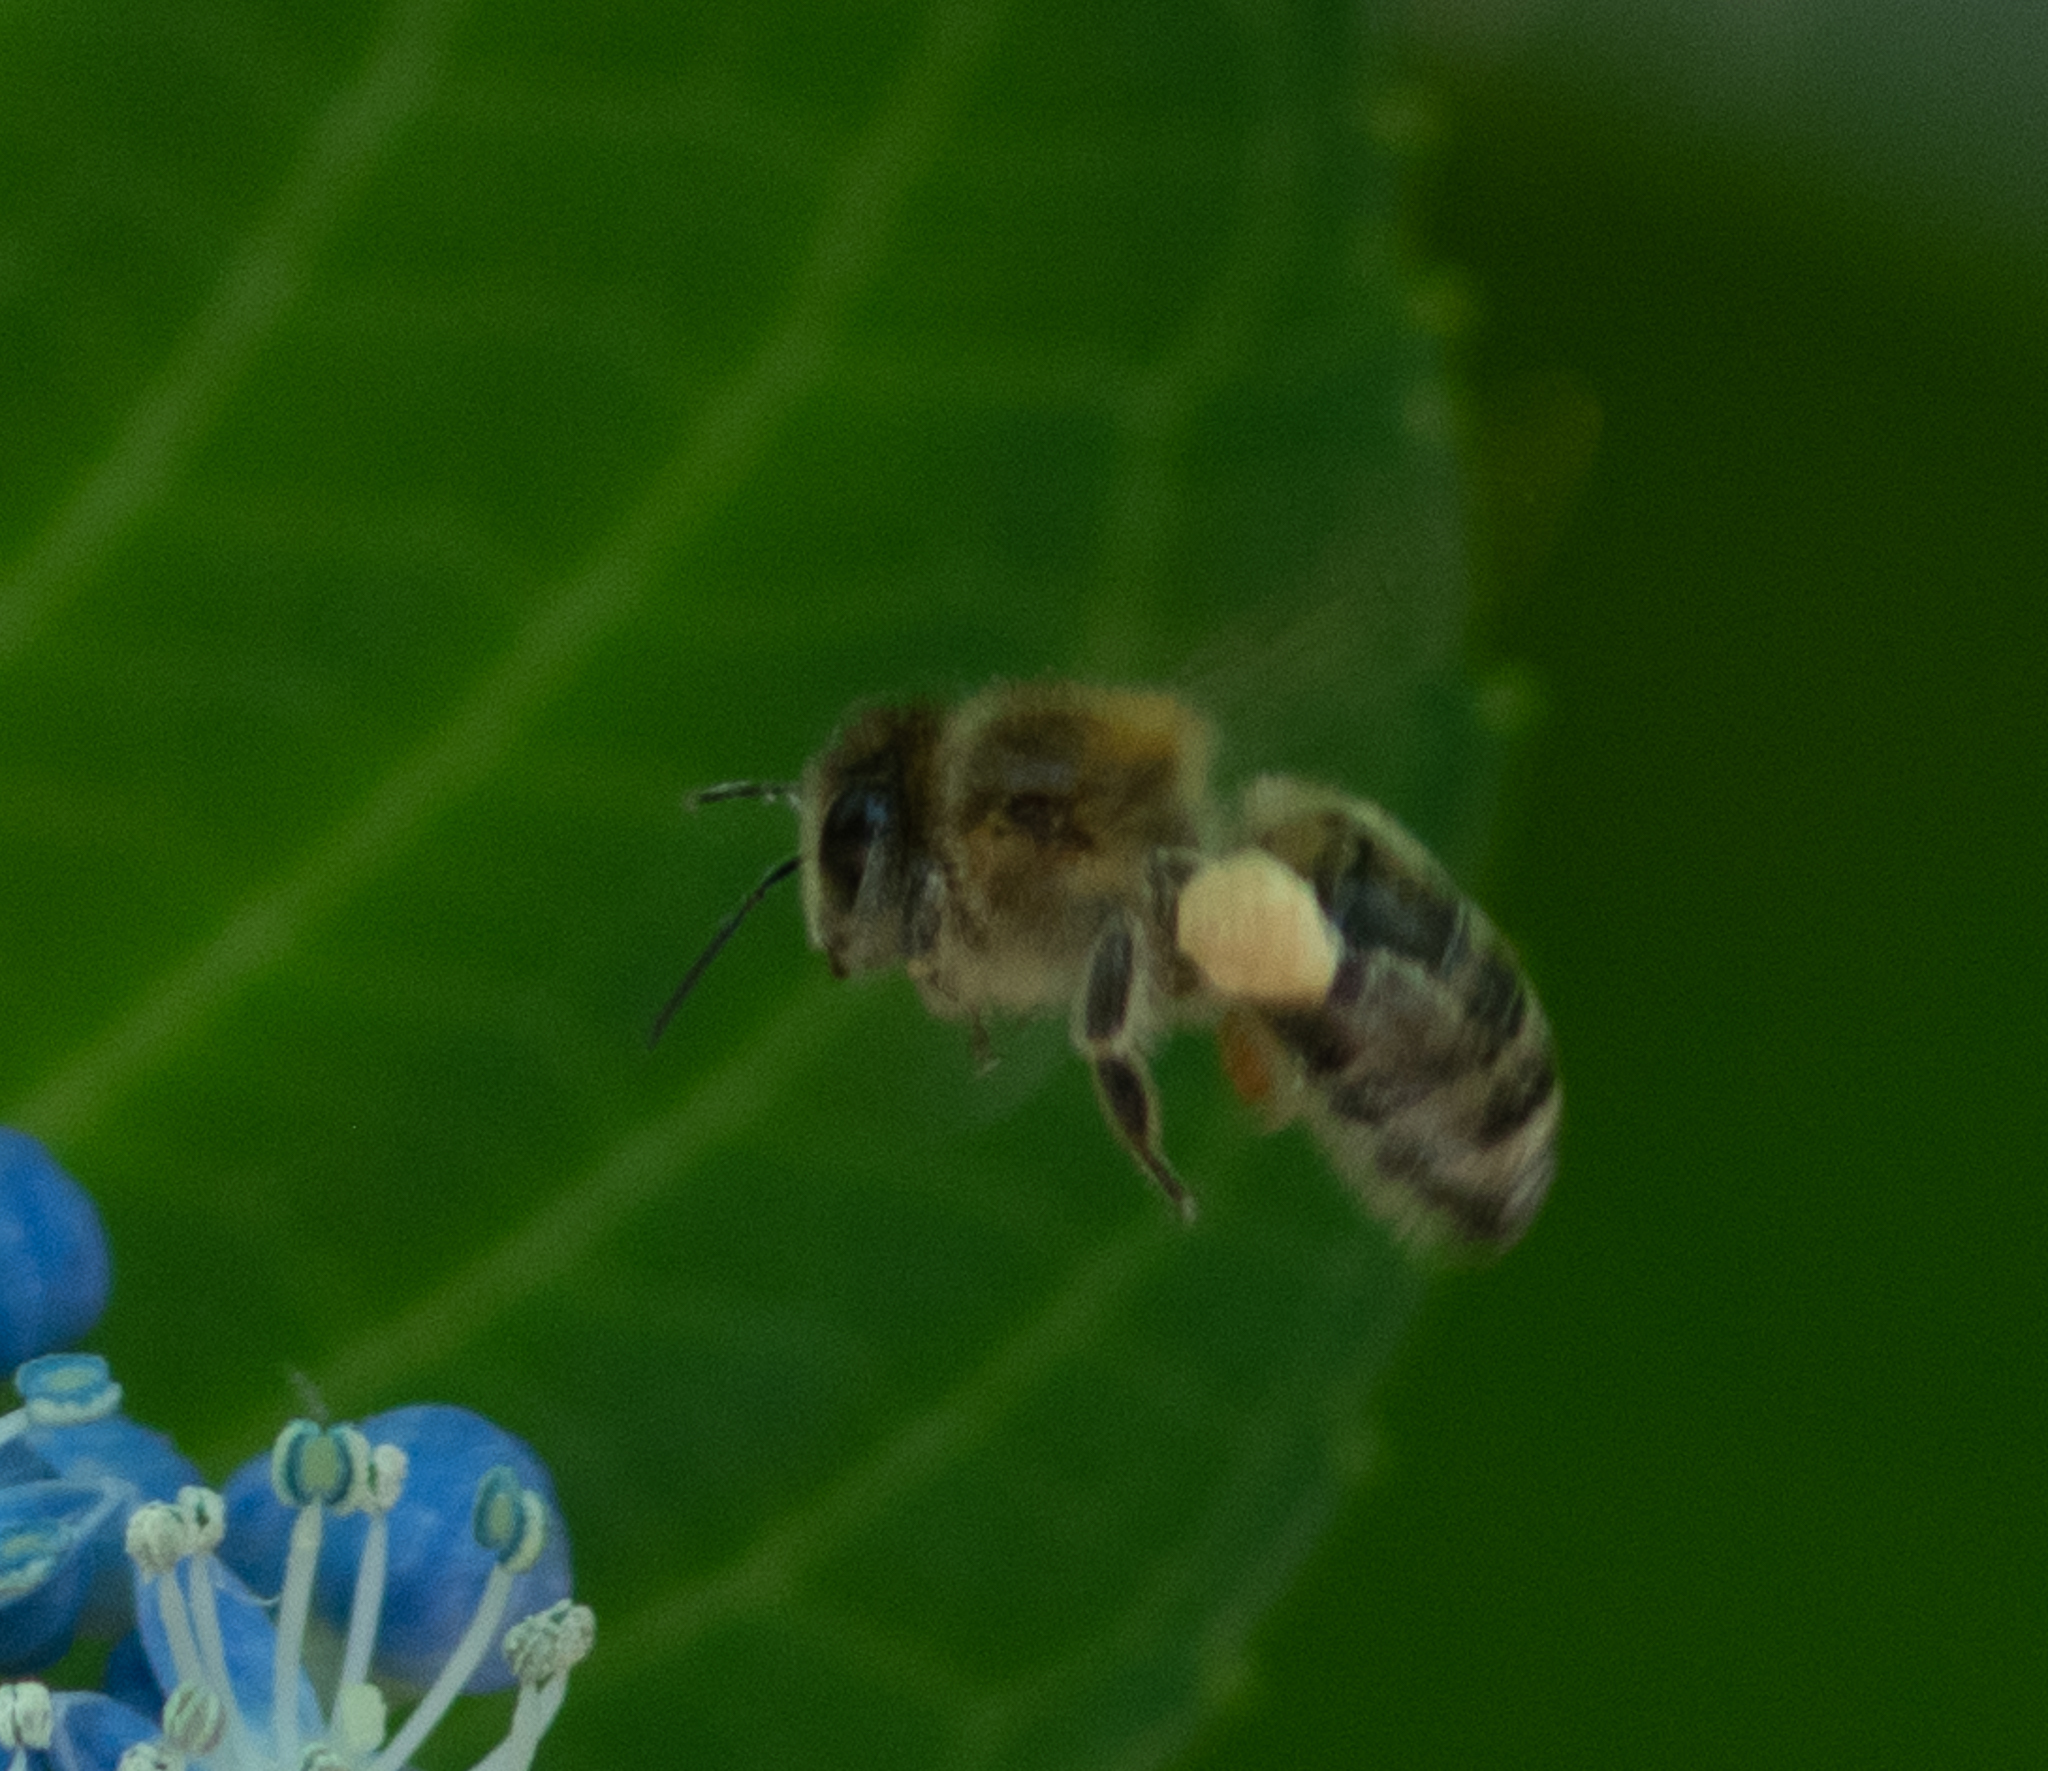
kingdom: Animalia
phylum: Arthropoda
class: Insecta
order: Hymenoptera
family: Apidae
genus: Apis
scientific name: Apis mellifera
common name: Honey bee
